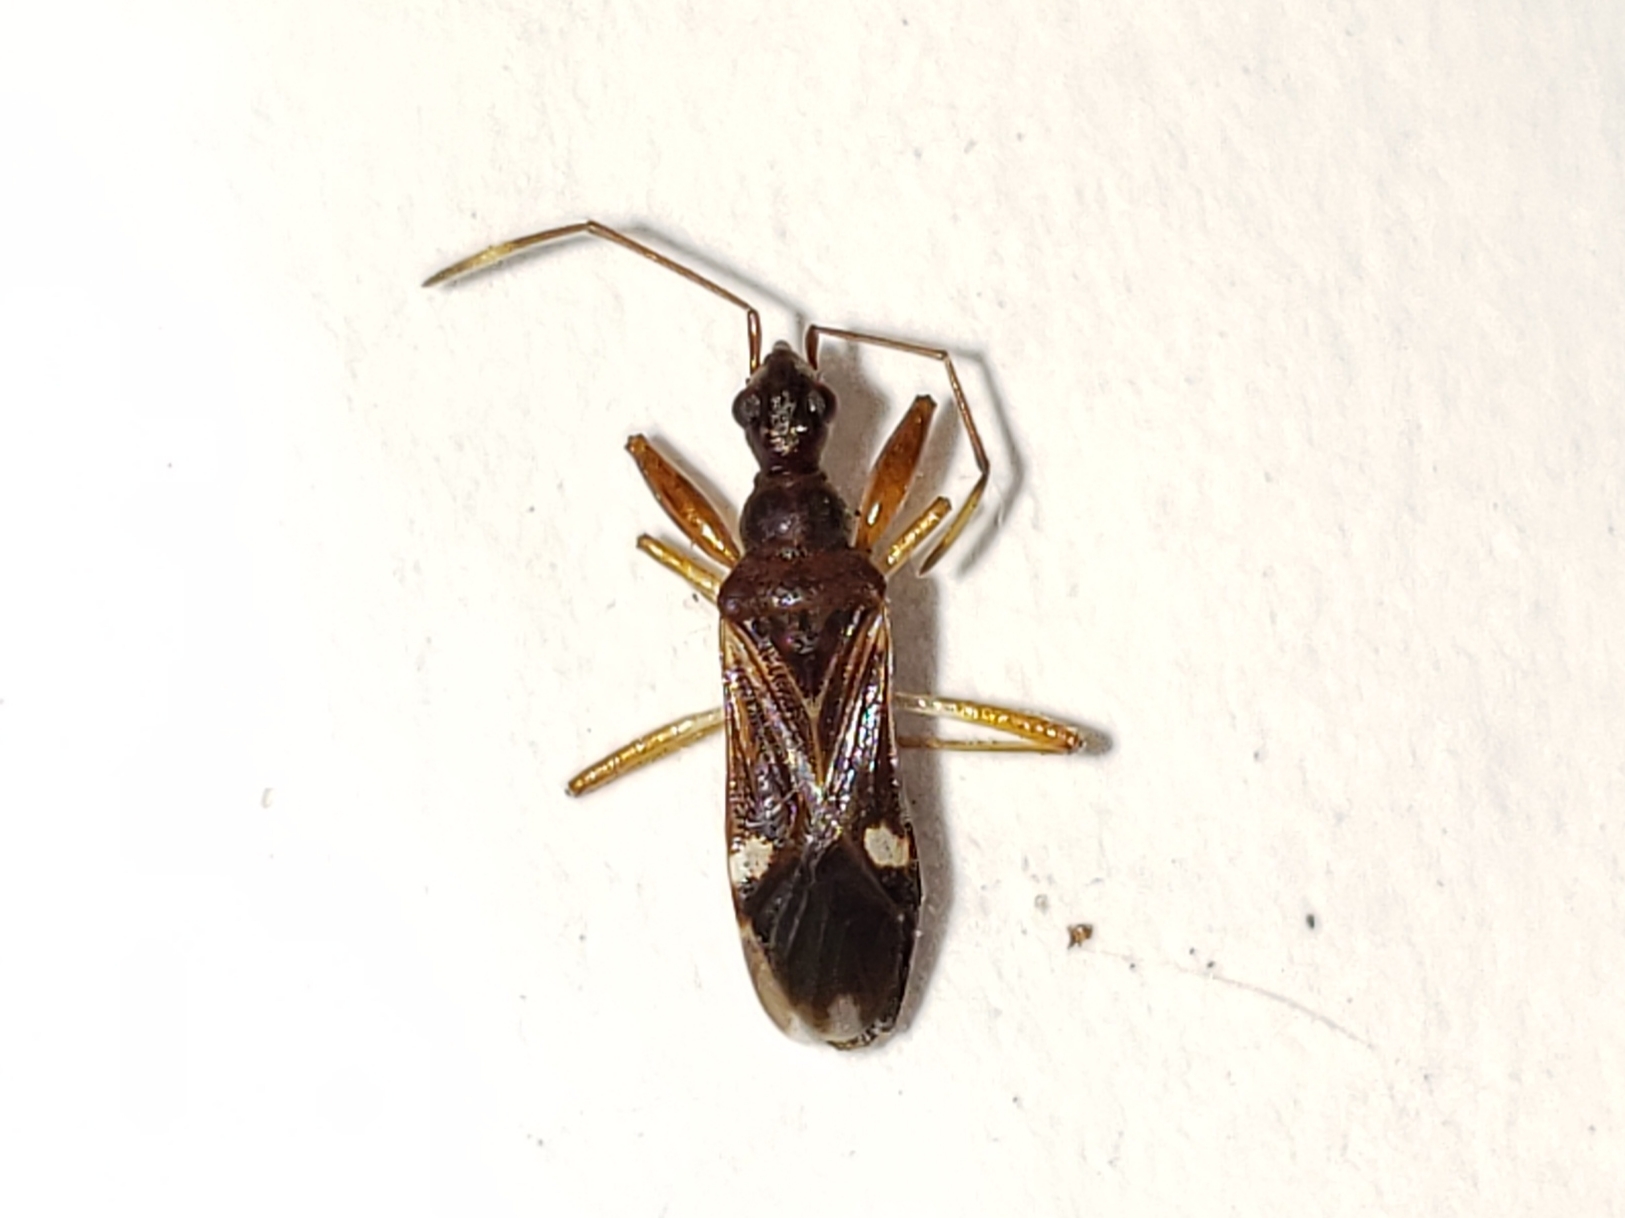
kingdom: Animalia
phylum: Arthropoda
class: Insecta
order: Hemiptera
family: Rhyparochromidae
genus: Heraeus
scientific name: Heraeus triguttatus
